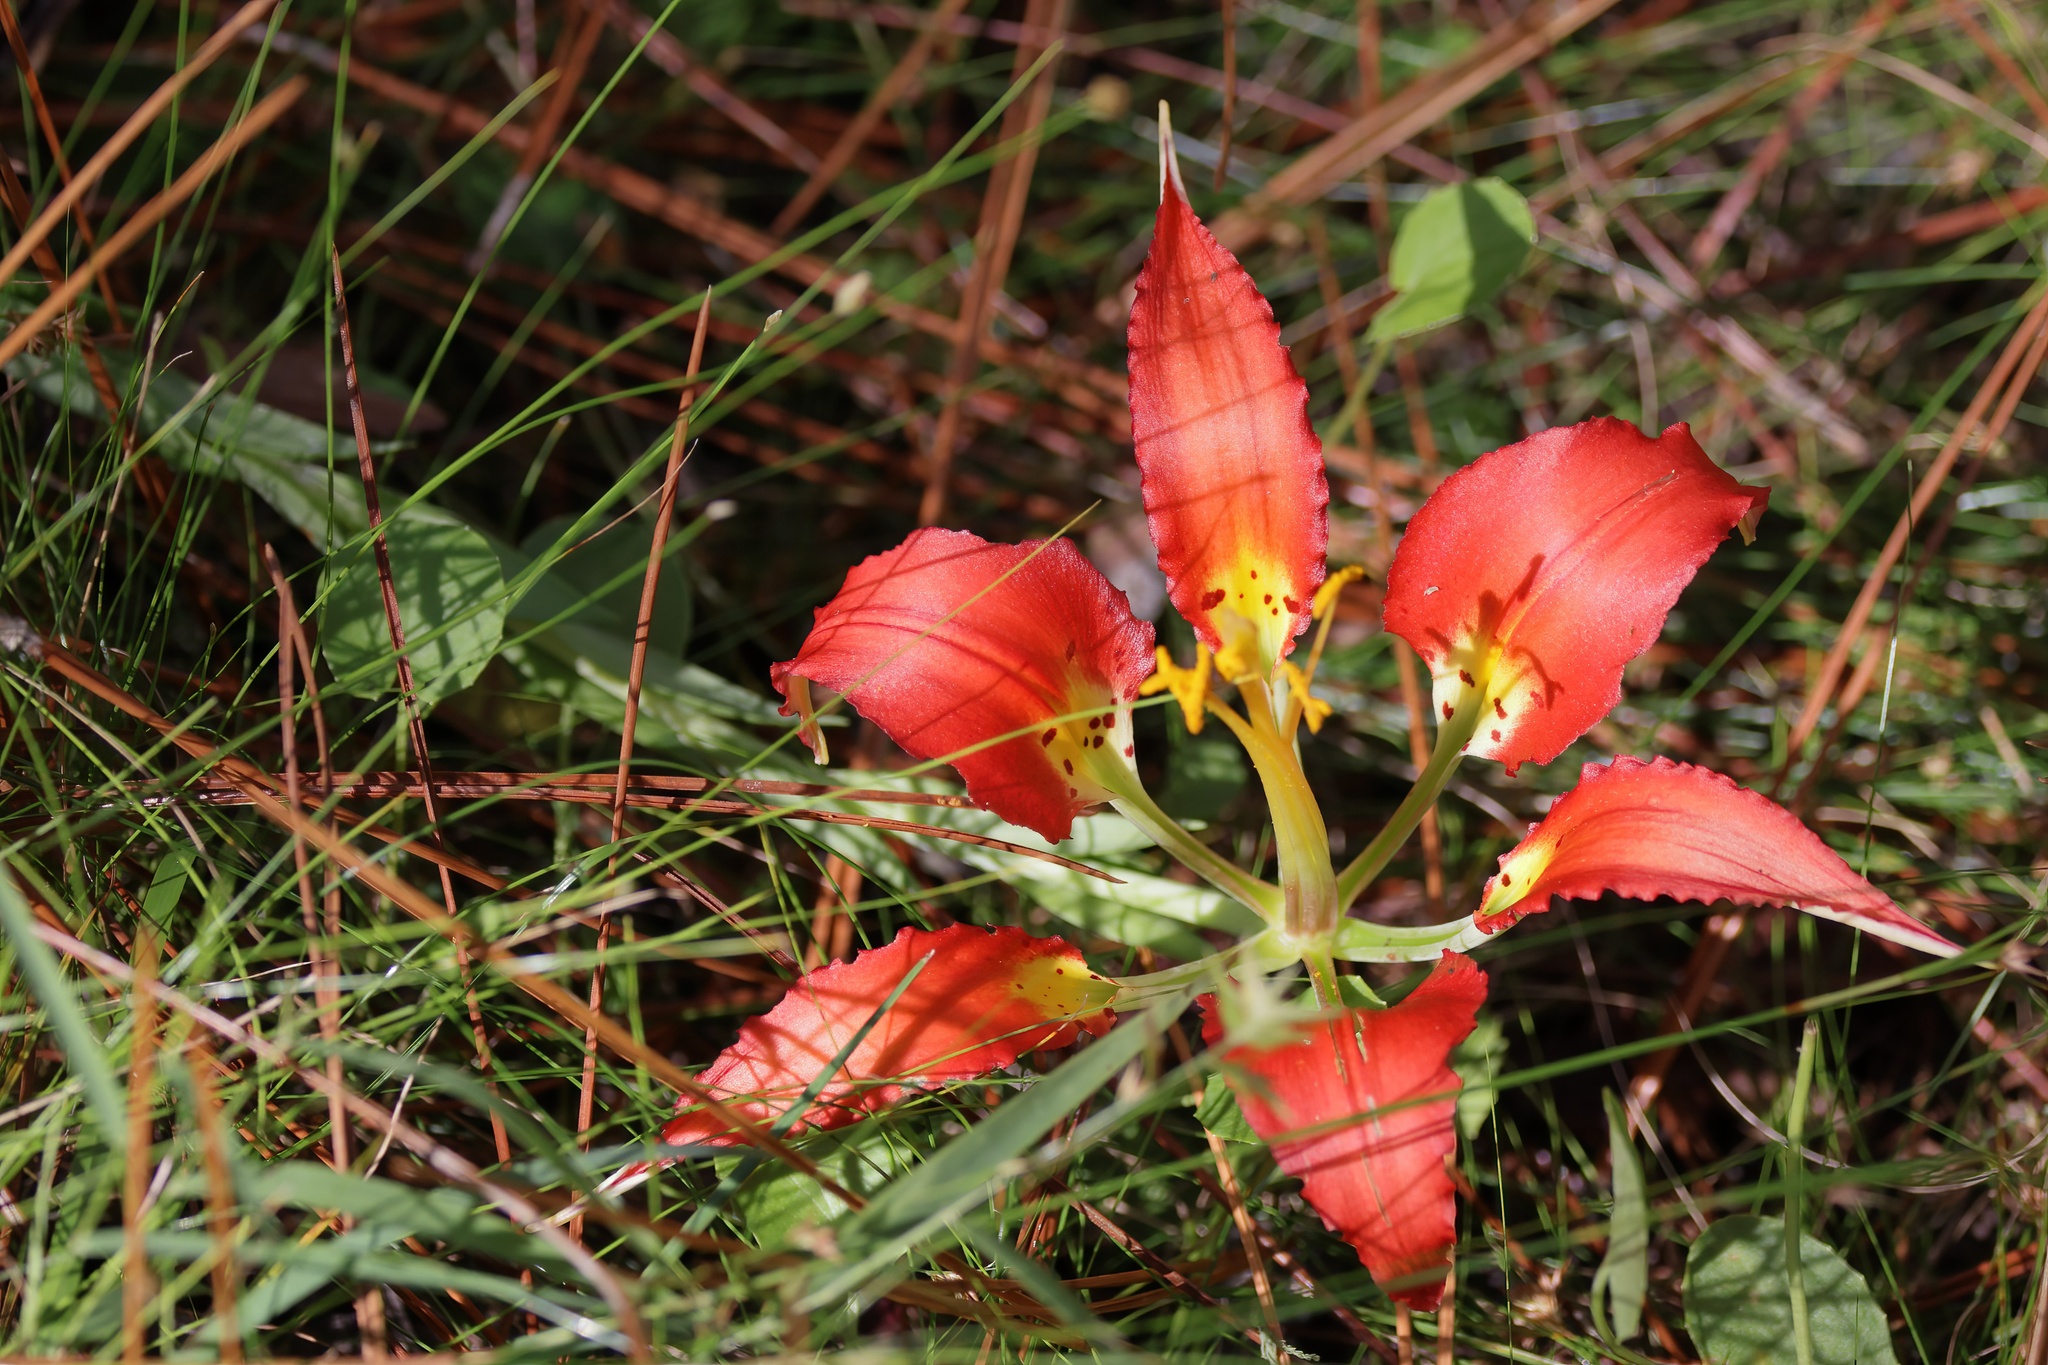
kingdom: Plantae
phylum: Tracheophyta
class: Liliopsida
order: Liliales
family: Liliaceae
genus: Lilium
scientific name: Lilium catesbaei
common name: Catesby's lily
